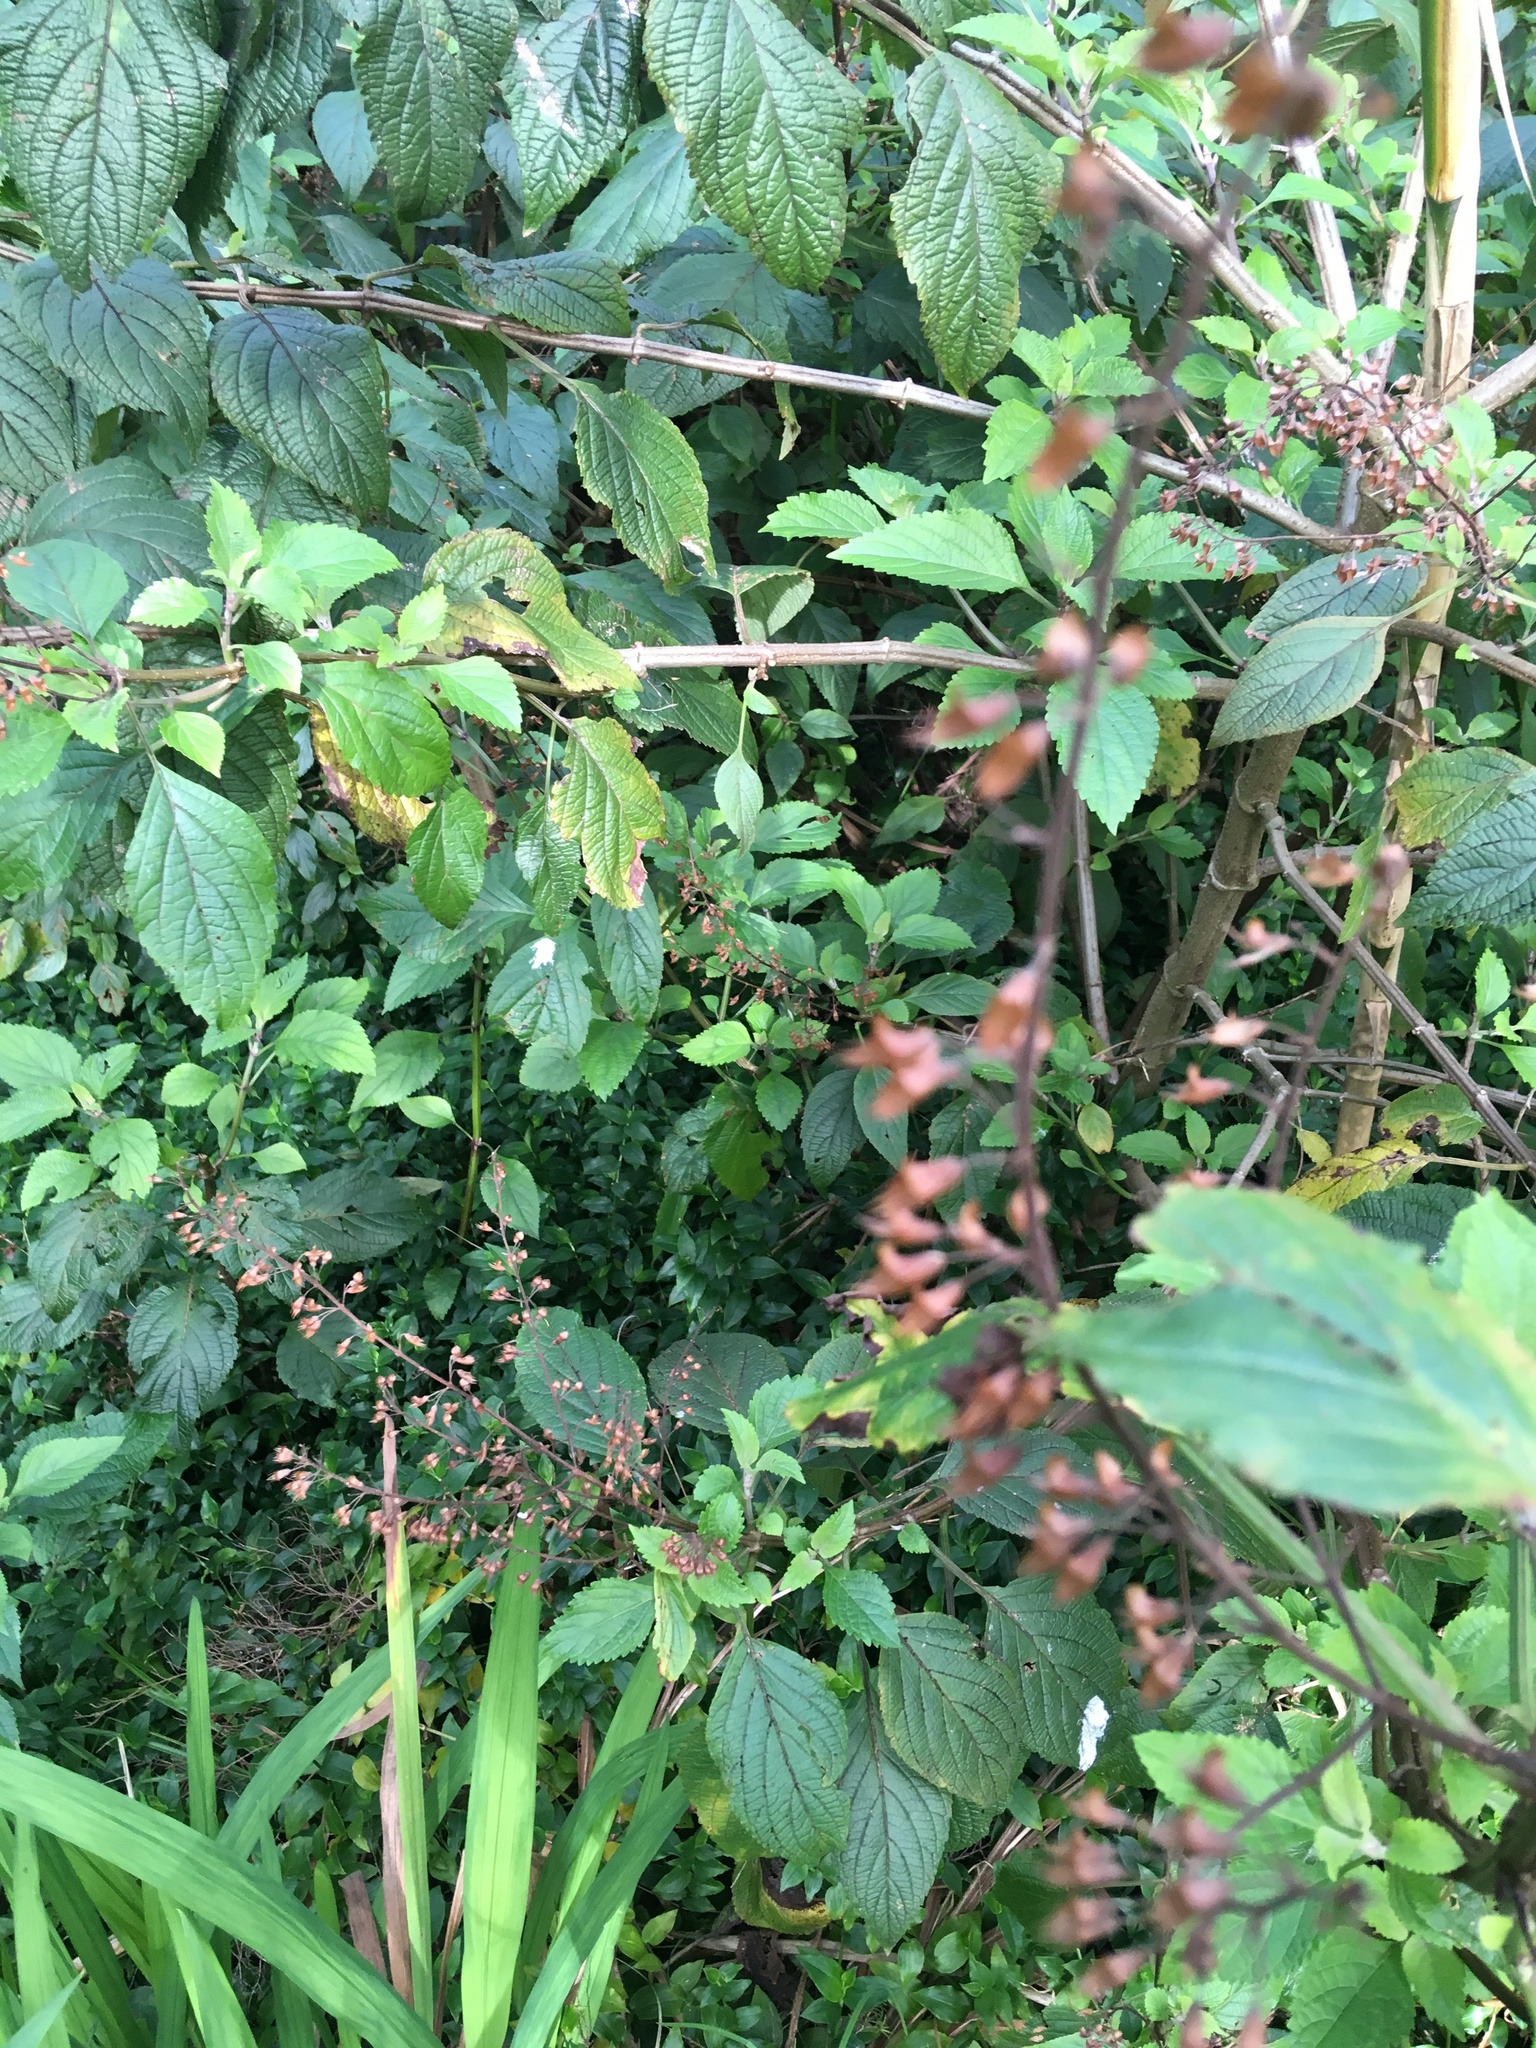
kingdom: Plantae
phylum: Tracheophyta
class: Magnoliopsida
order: Lamiales
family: Lamiaceae
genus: Plectranthus
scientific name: Plectranthus ecklonii
